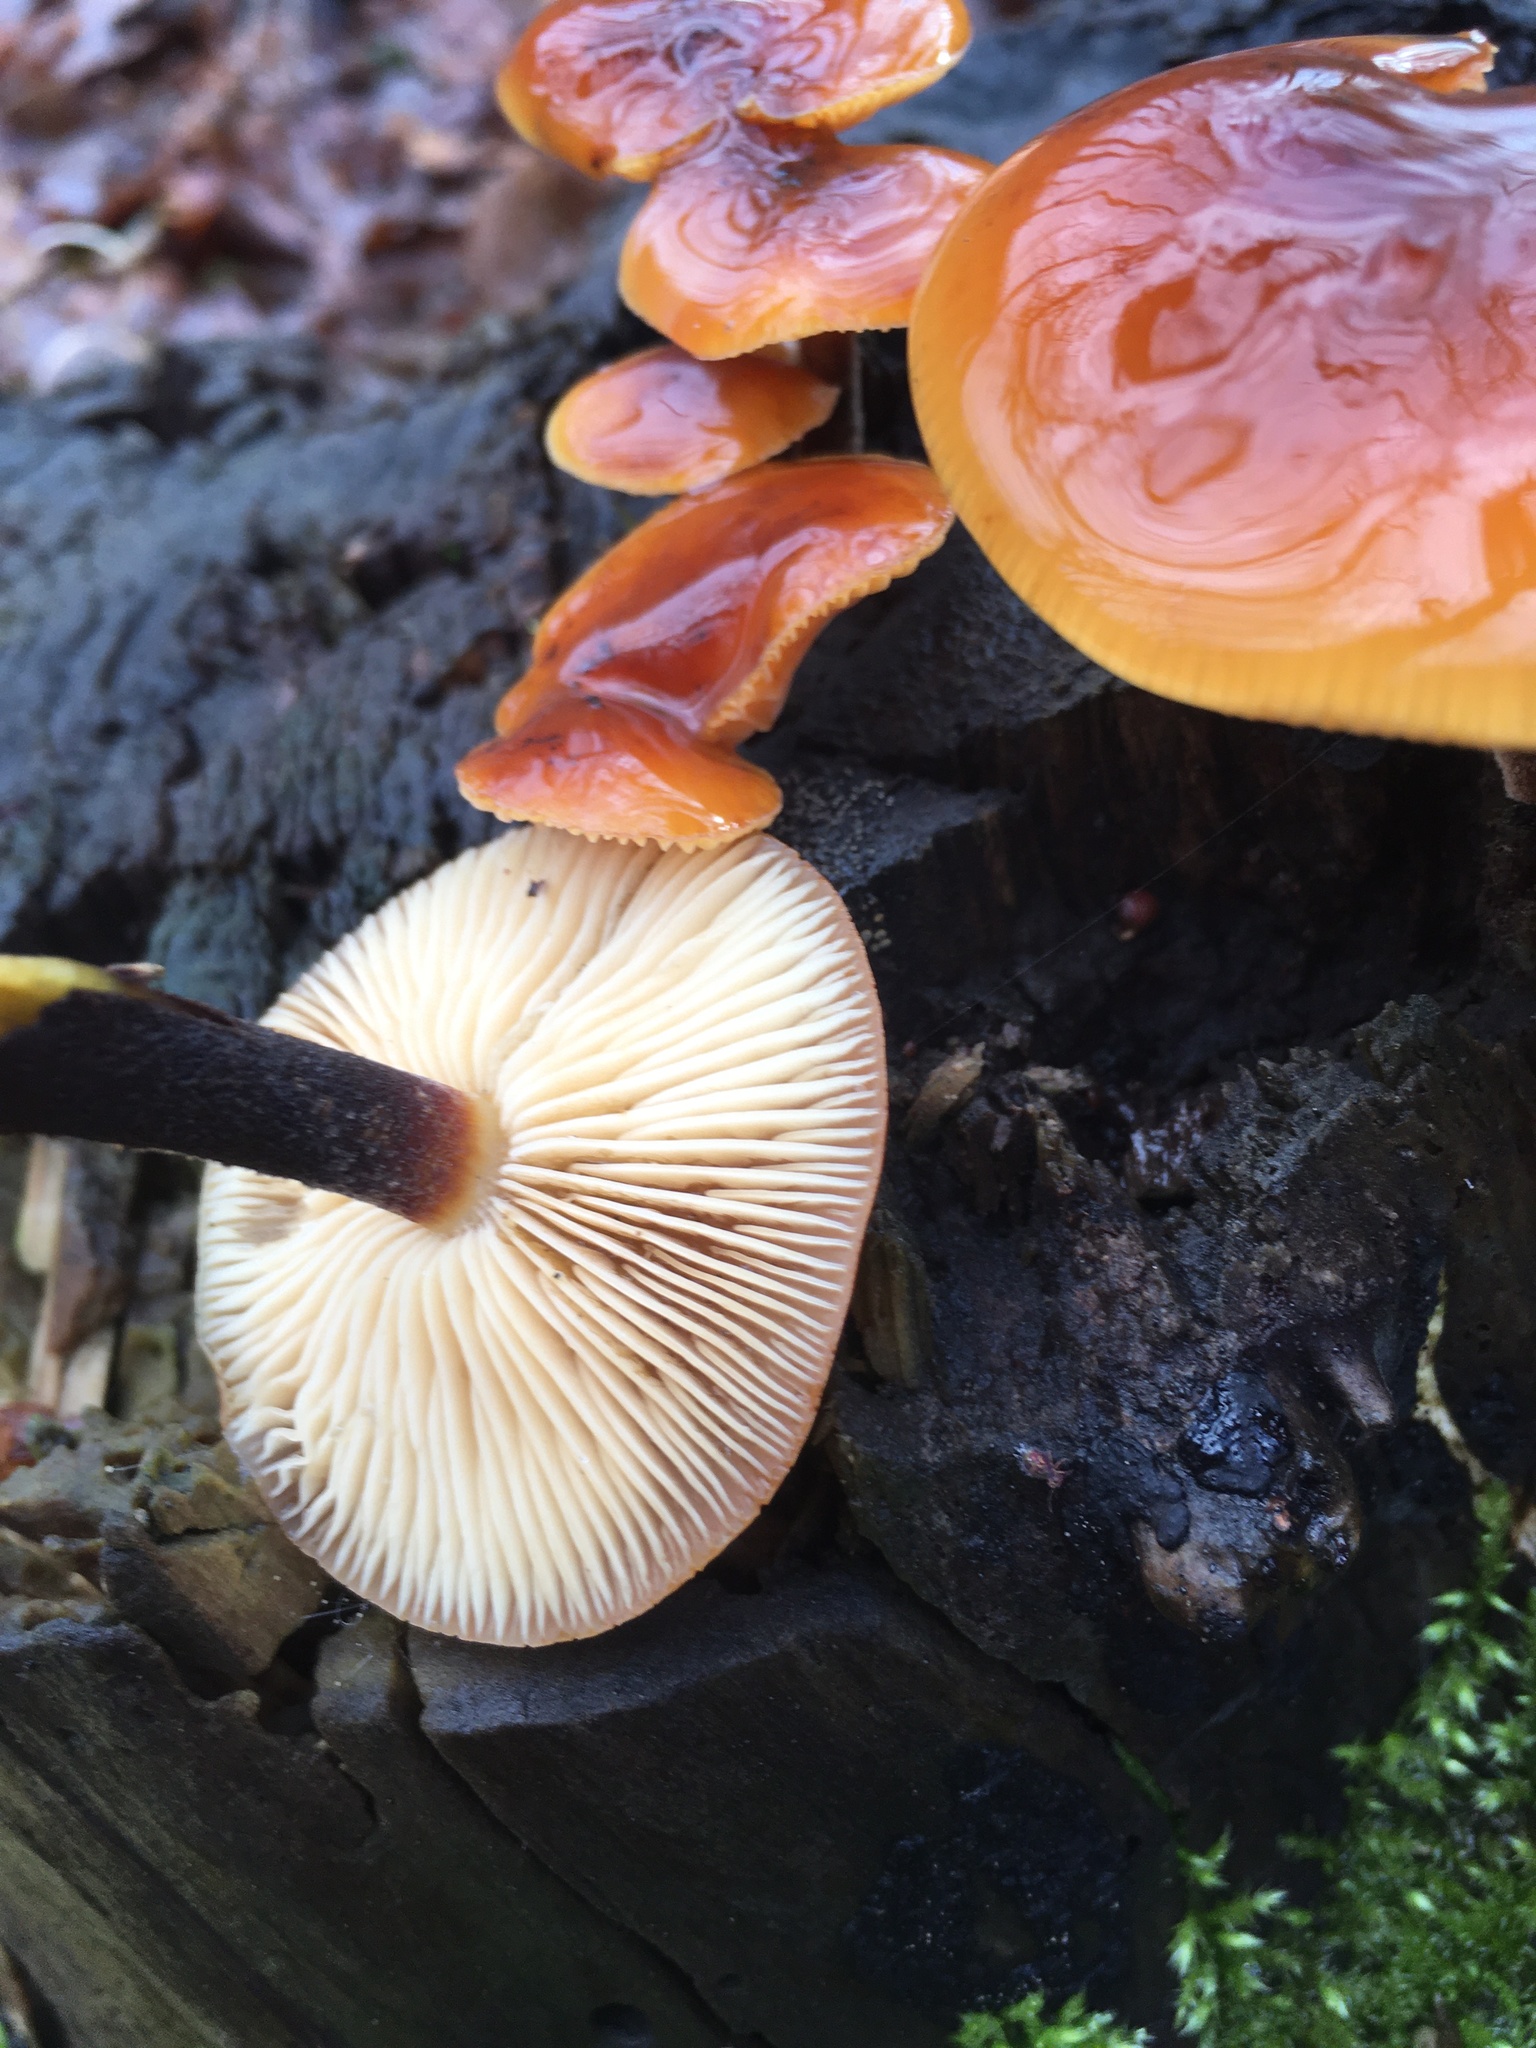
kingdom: Fungi
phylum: Basidiomycota
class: Agaricomycetes
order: Agaricales
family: Physalacriaceae
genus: Flammulina
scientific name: Flammulina
